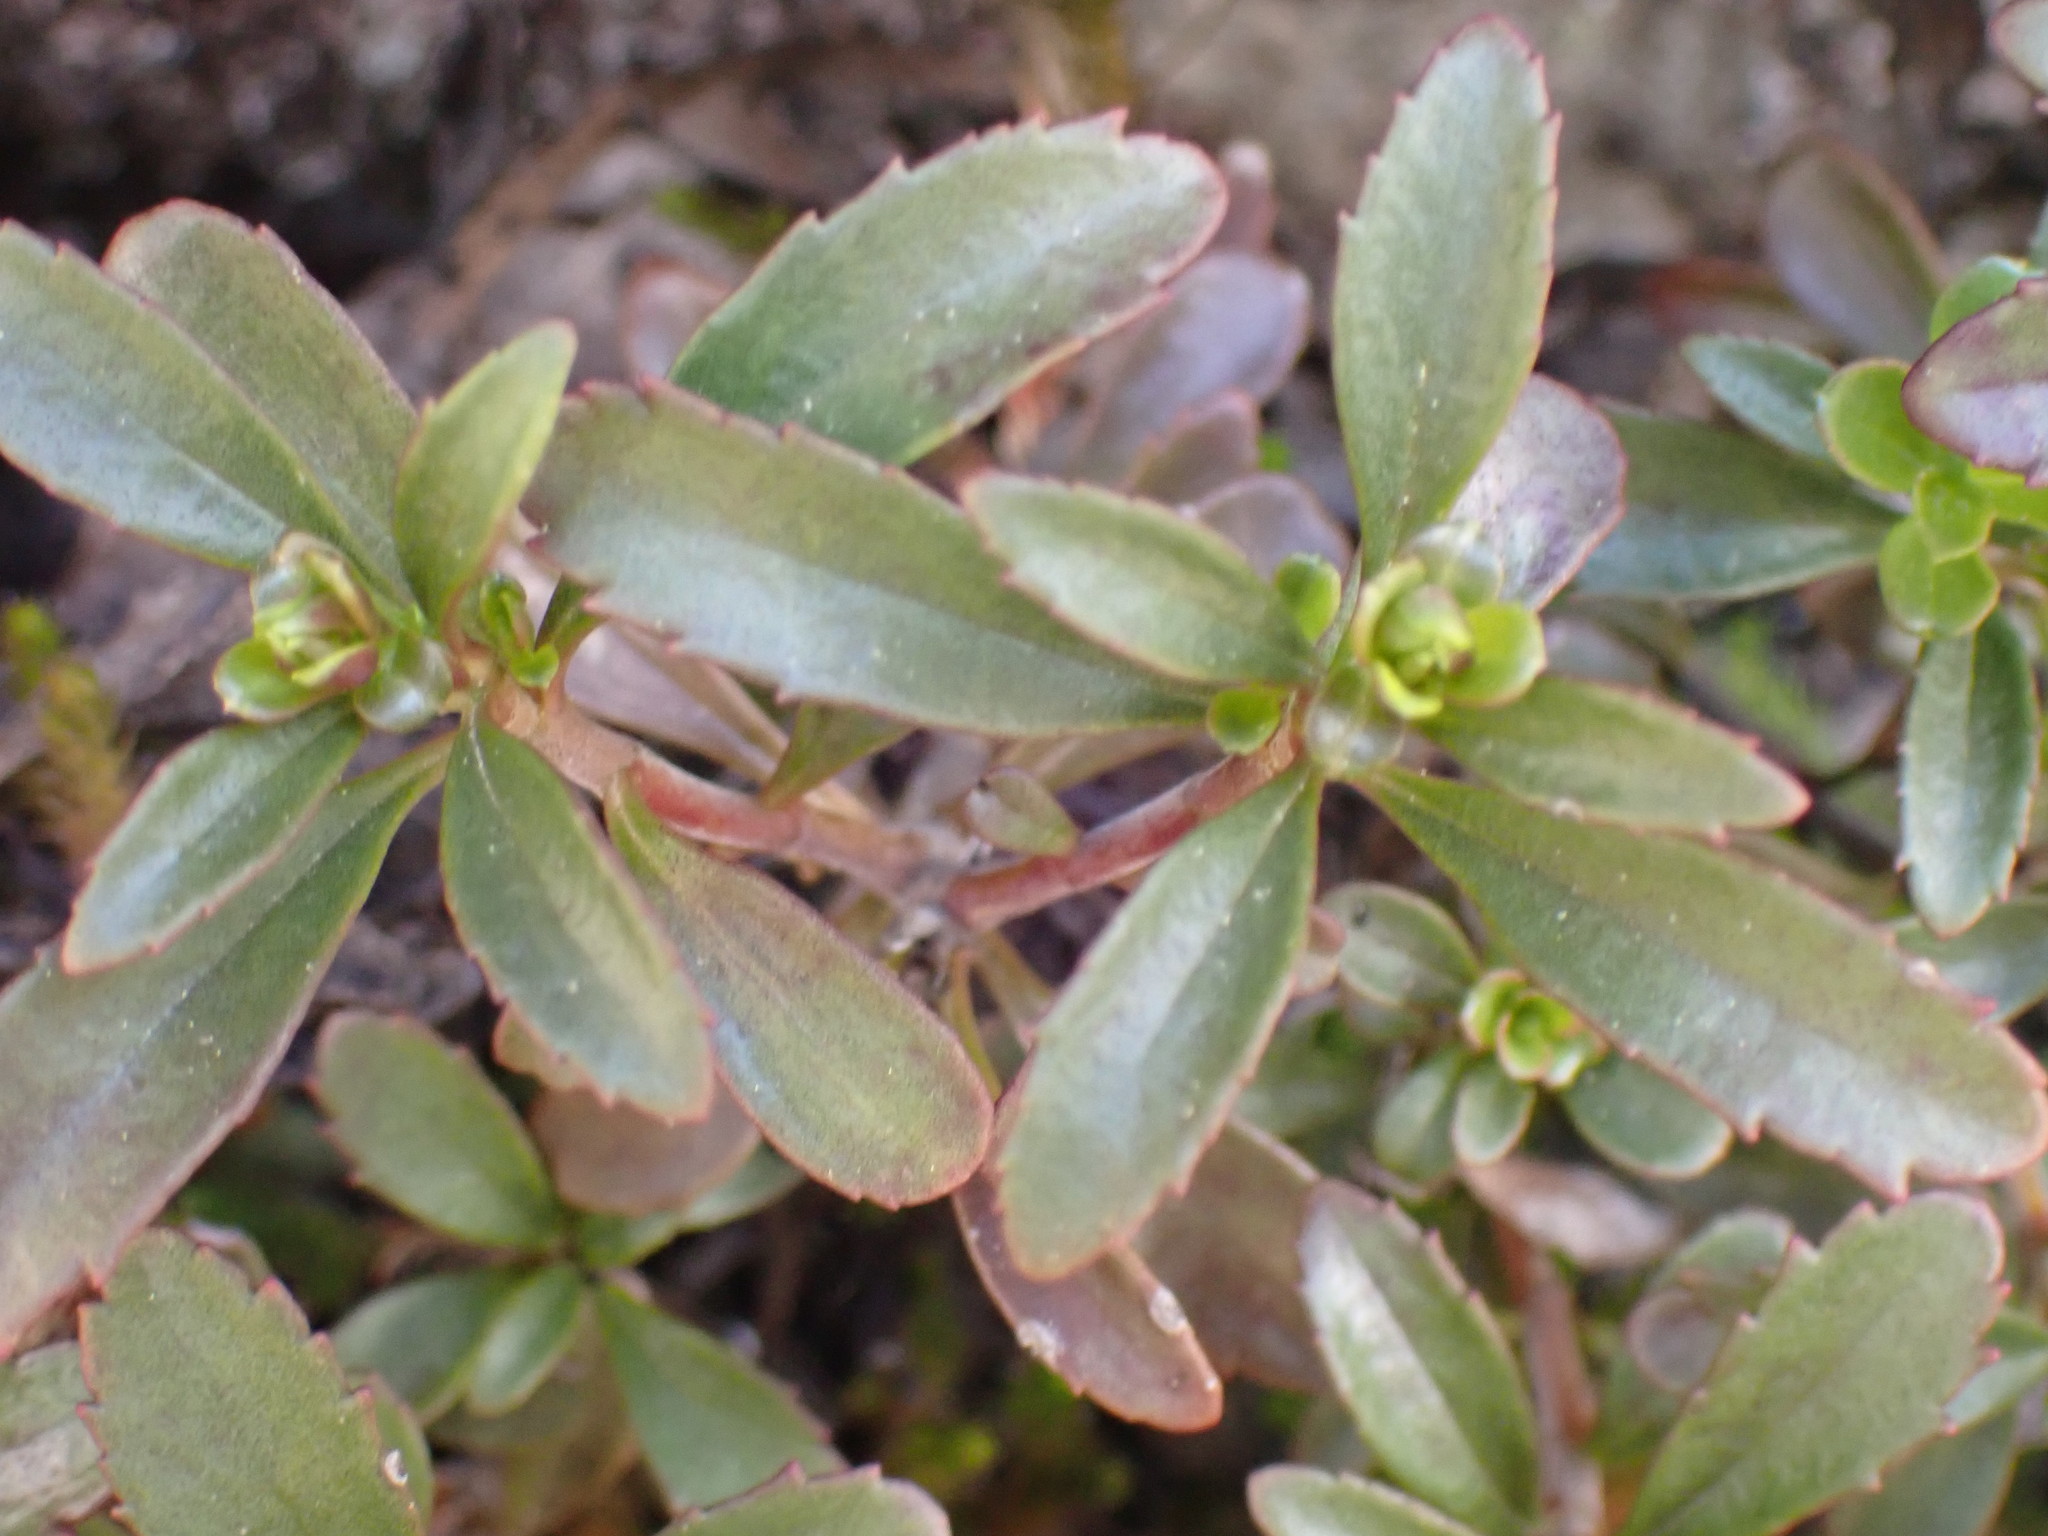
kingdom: Plantae
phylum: Tracheophyta
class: Magnoliopsida
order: Lamiales
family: Plantaginaceae
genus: Penstemon
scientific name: Penstemon fruticosus
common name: Bush penstemon
